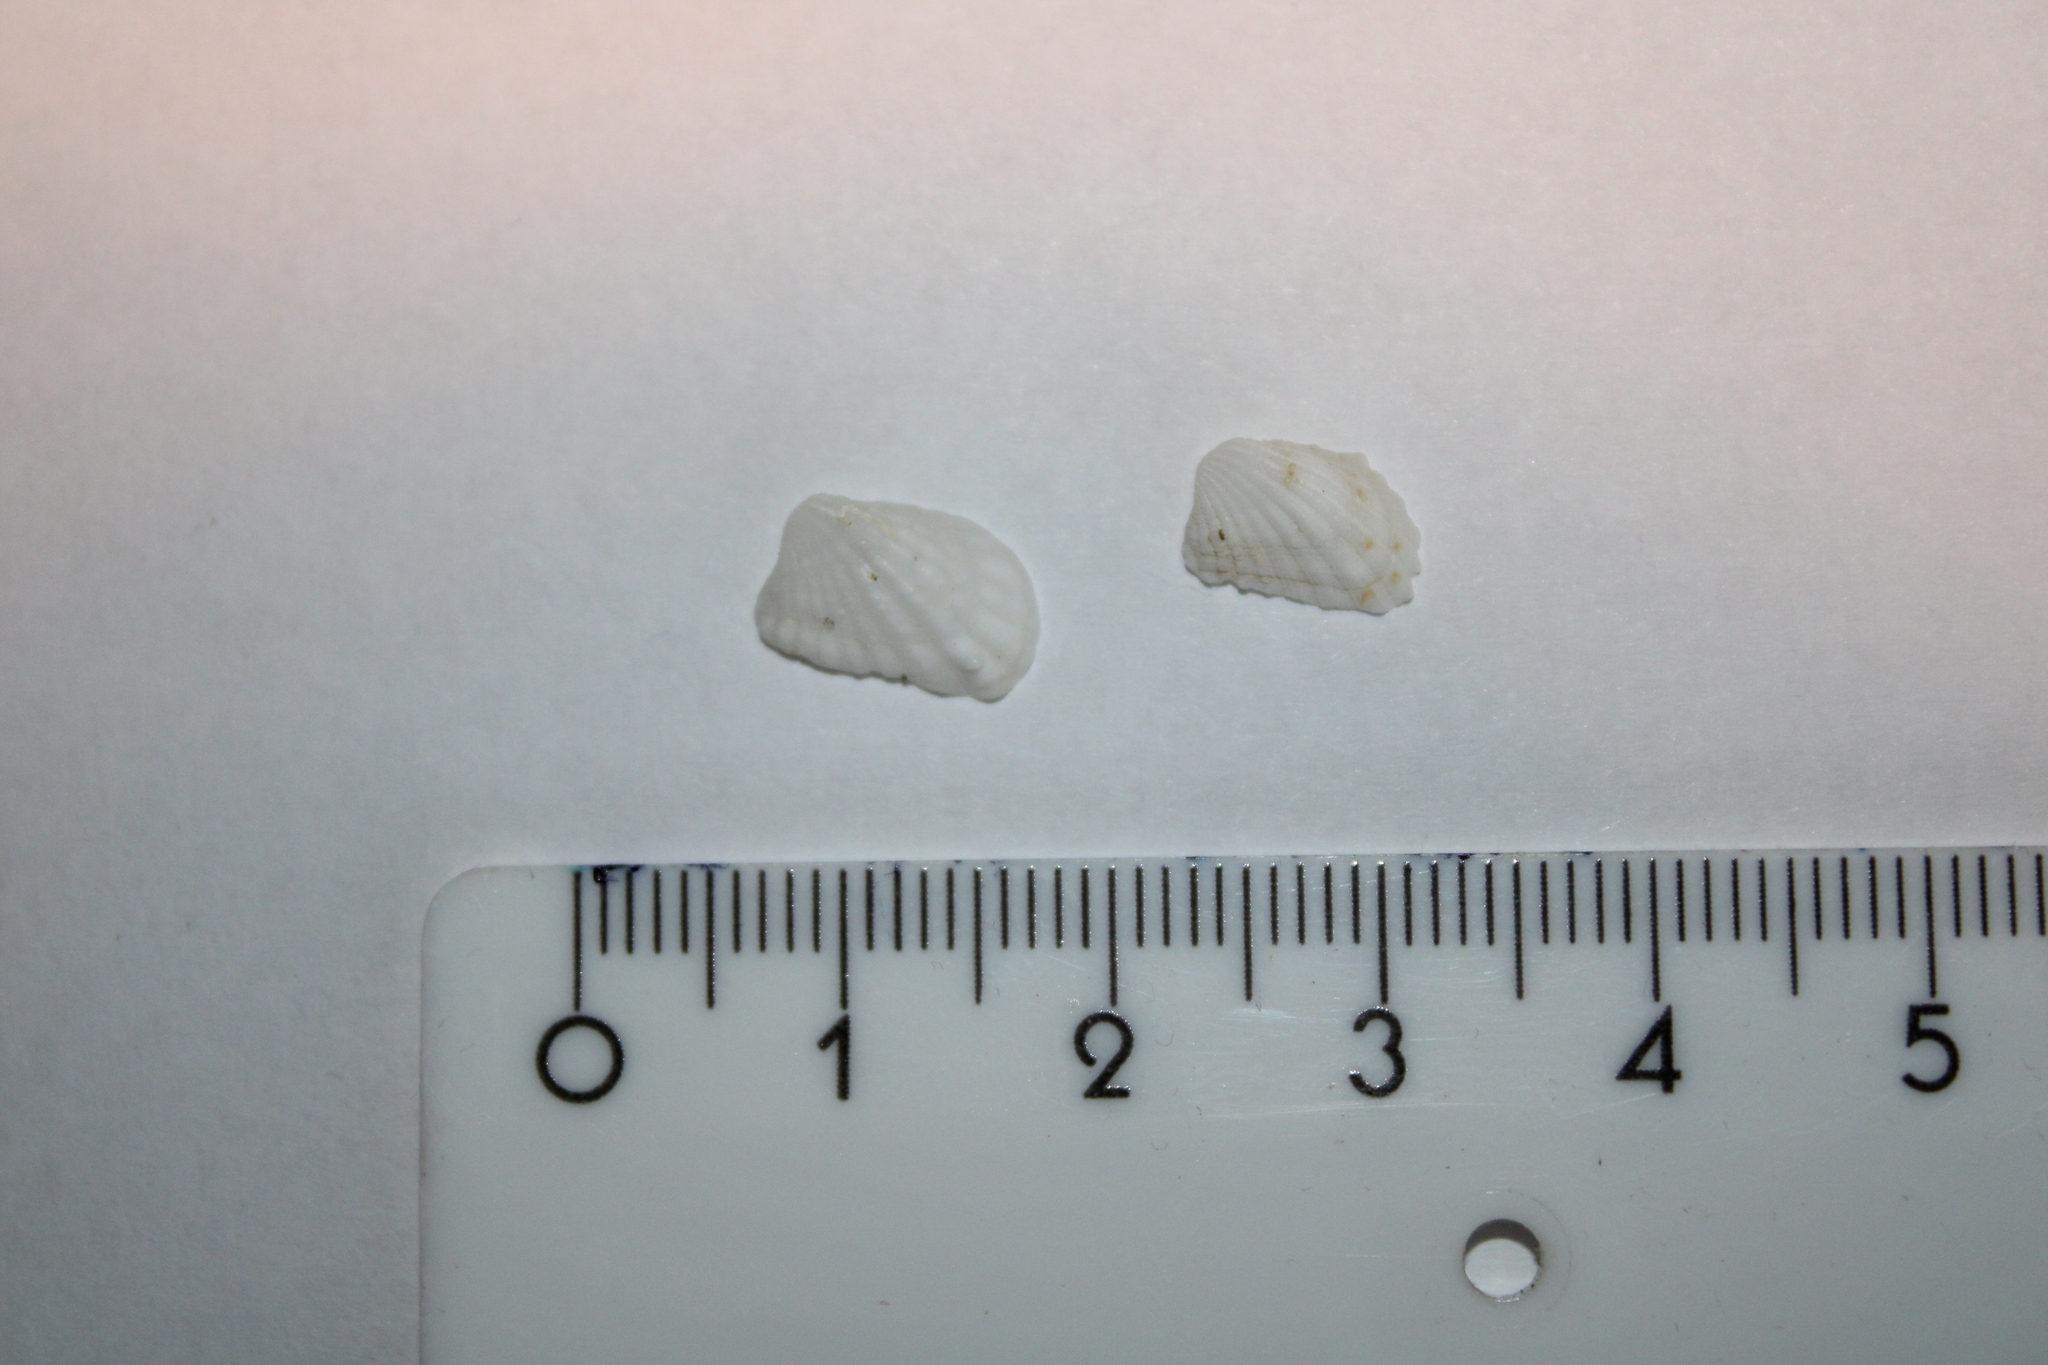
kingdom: Animalia
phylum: Mollusca
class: Bivalvia
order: Carditida
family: Carditidae
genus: Cardita
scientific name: Cardita calyculata
